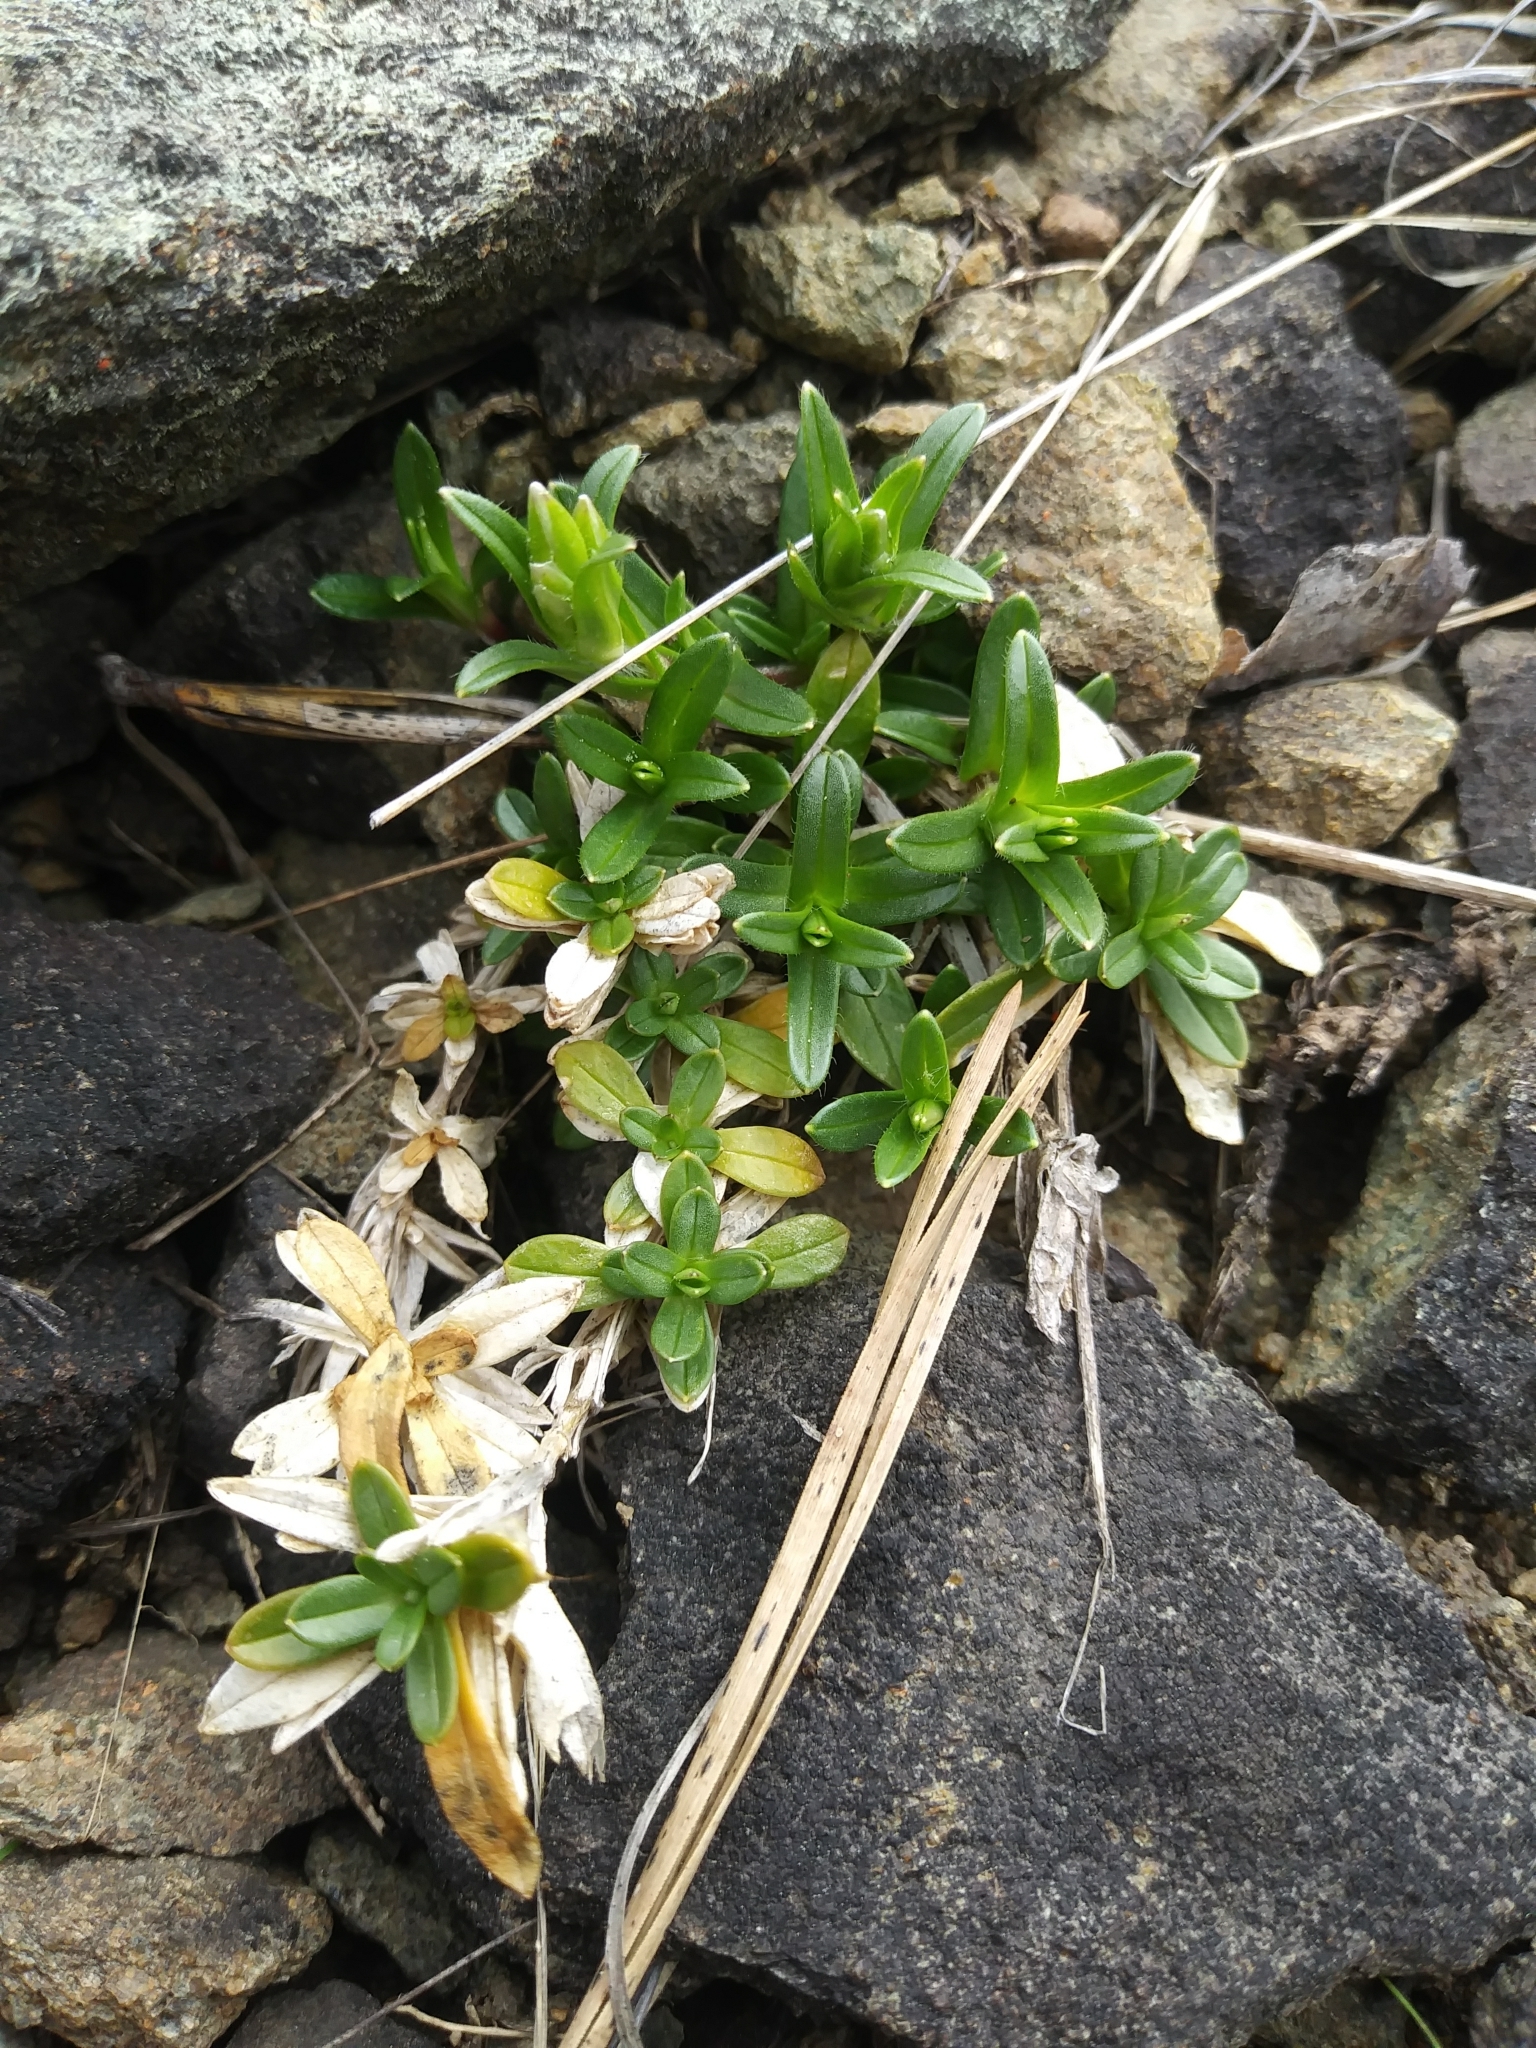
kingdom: Plantae
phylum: Tracheophyta
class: Magnoliopsida
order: Caryophyllales
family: Caryophyllaceae
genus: Cerastium
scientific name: Cerastium velutinum
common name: Barren chickweed
